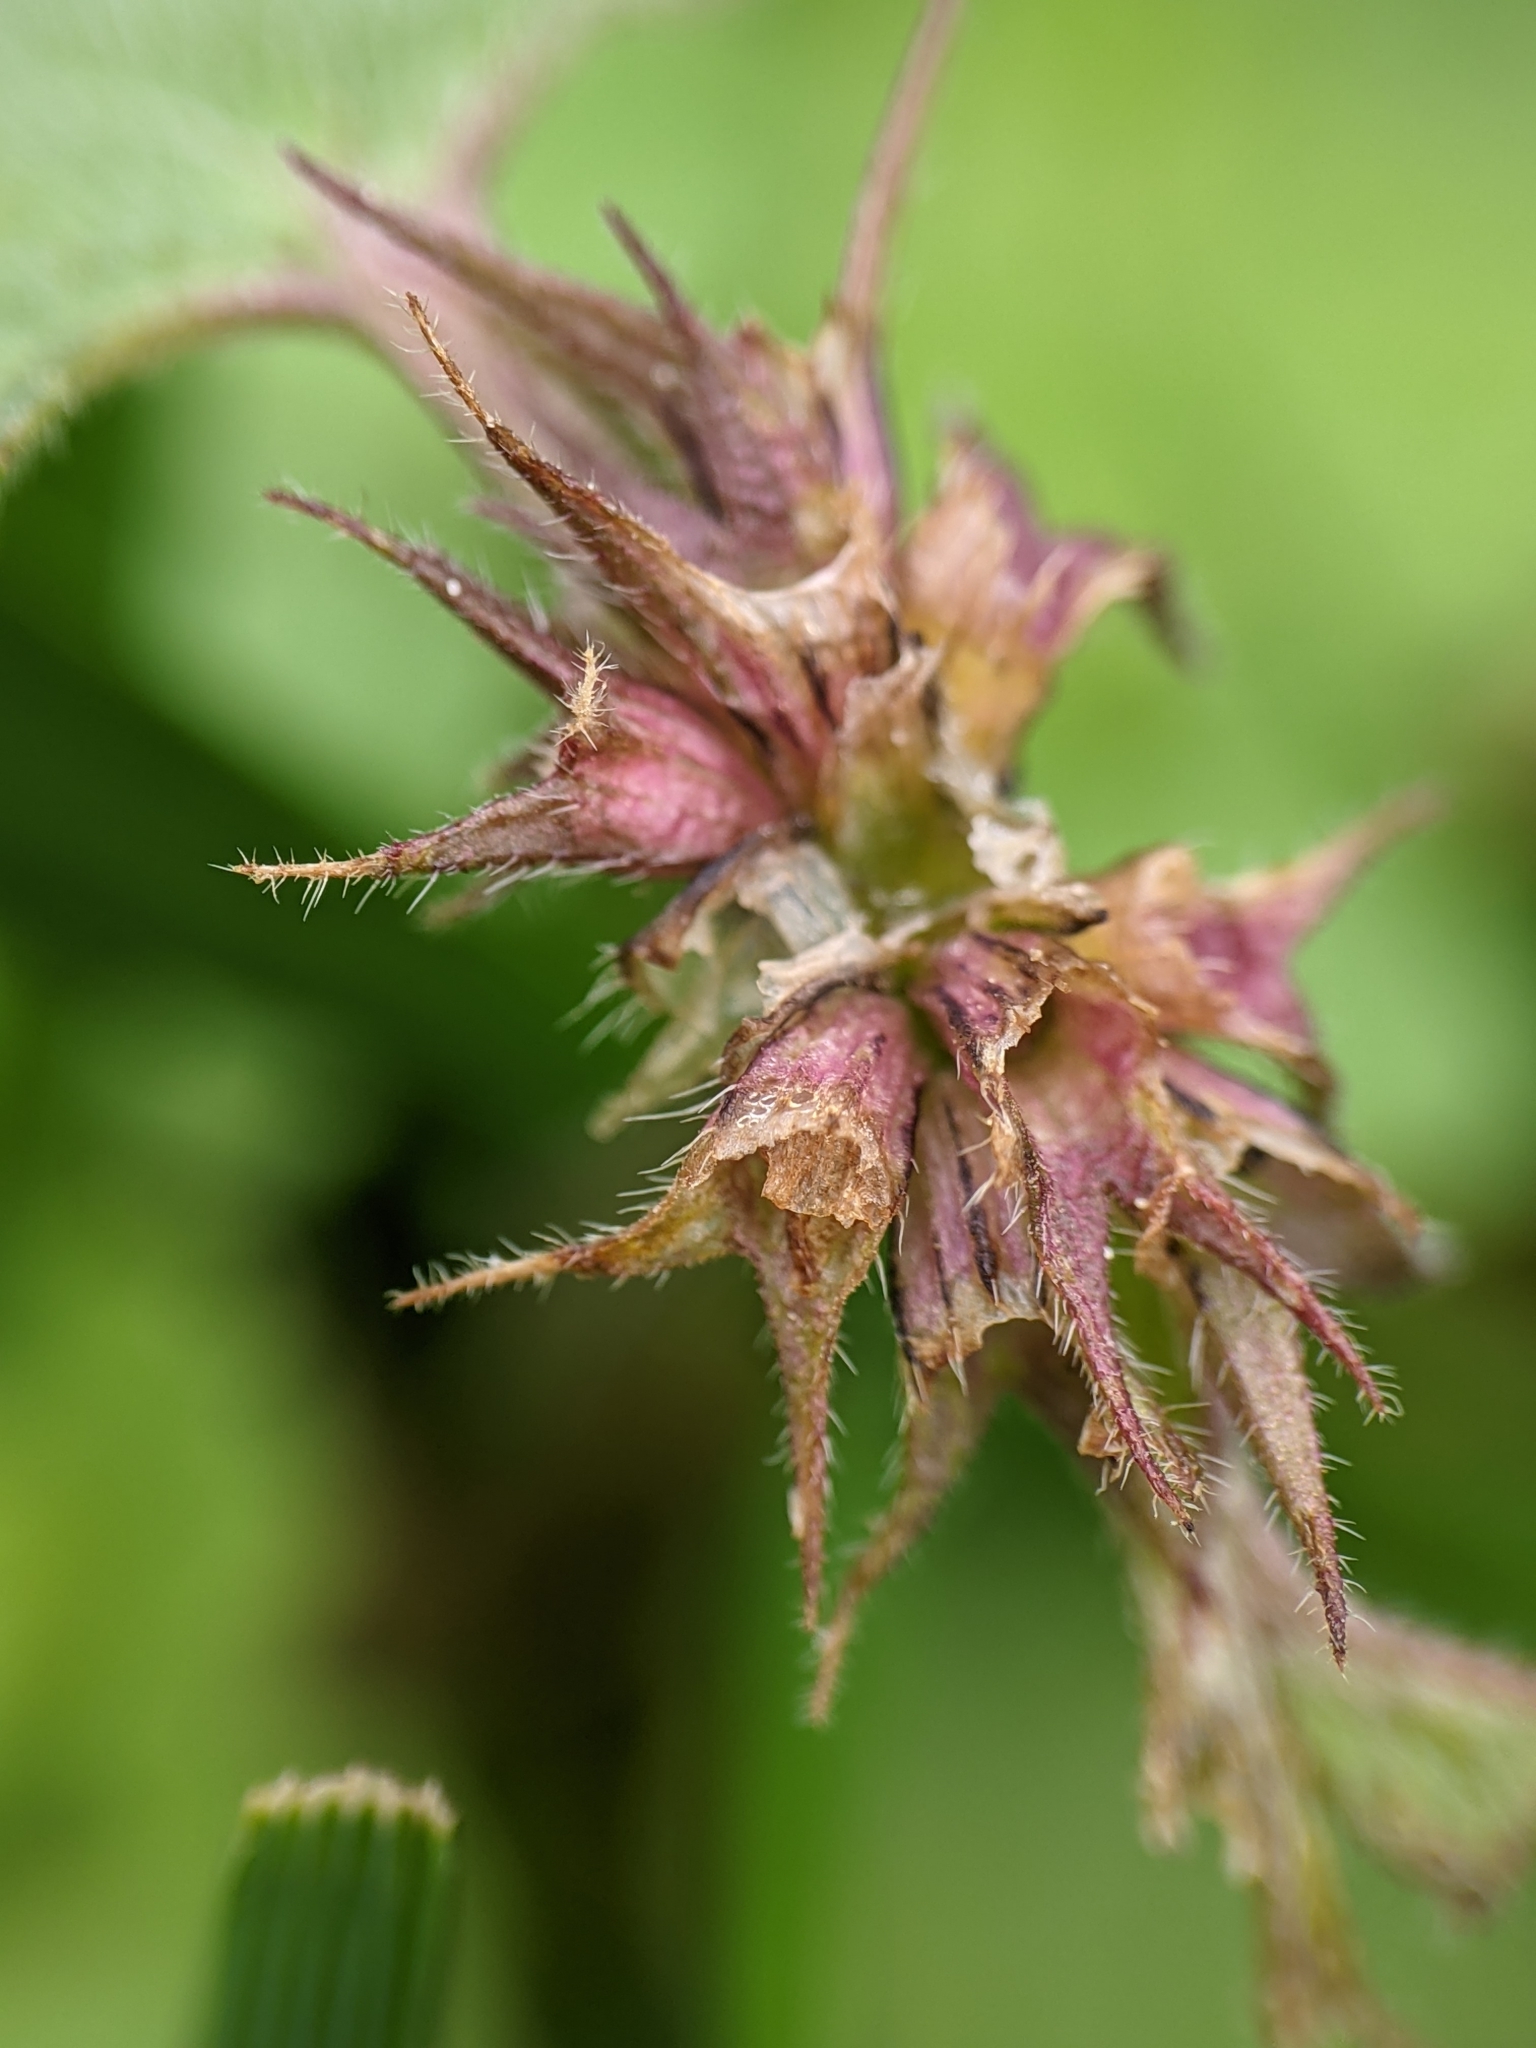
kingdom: Plantae
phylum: Tracheophyta
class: Magnoliopsida
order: Lamiales
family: Lamiaceae
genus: Lamium
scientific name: Lamium purpureum
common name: Red dead-nettle
